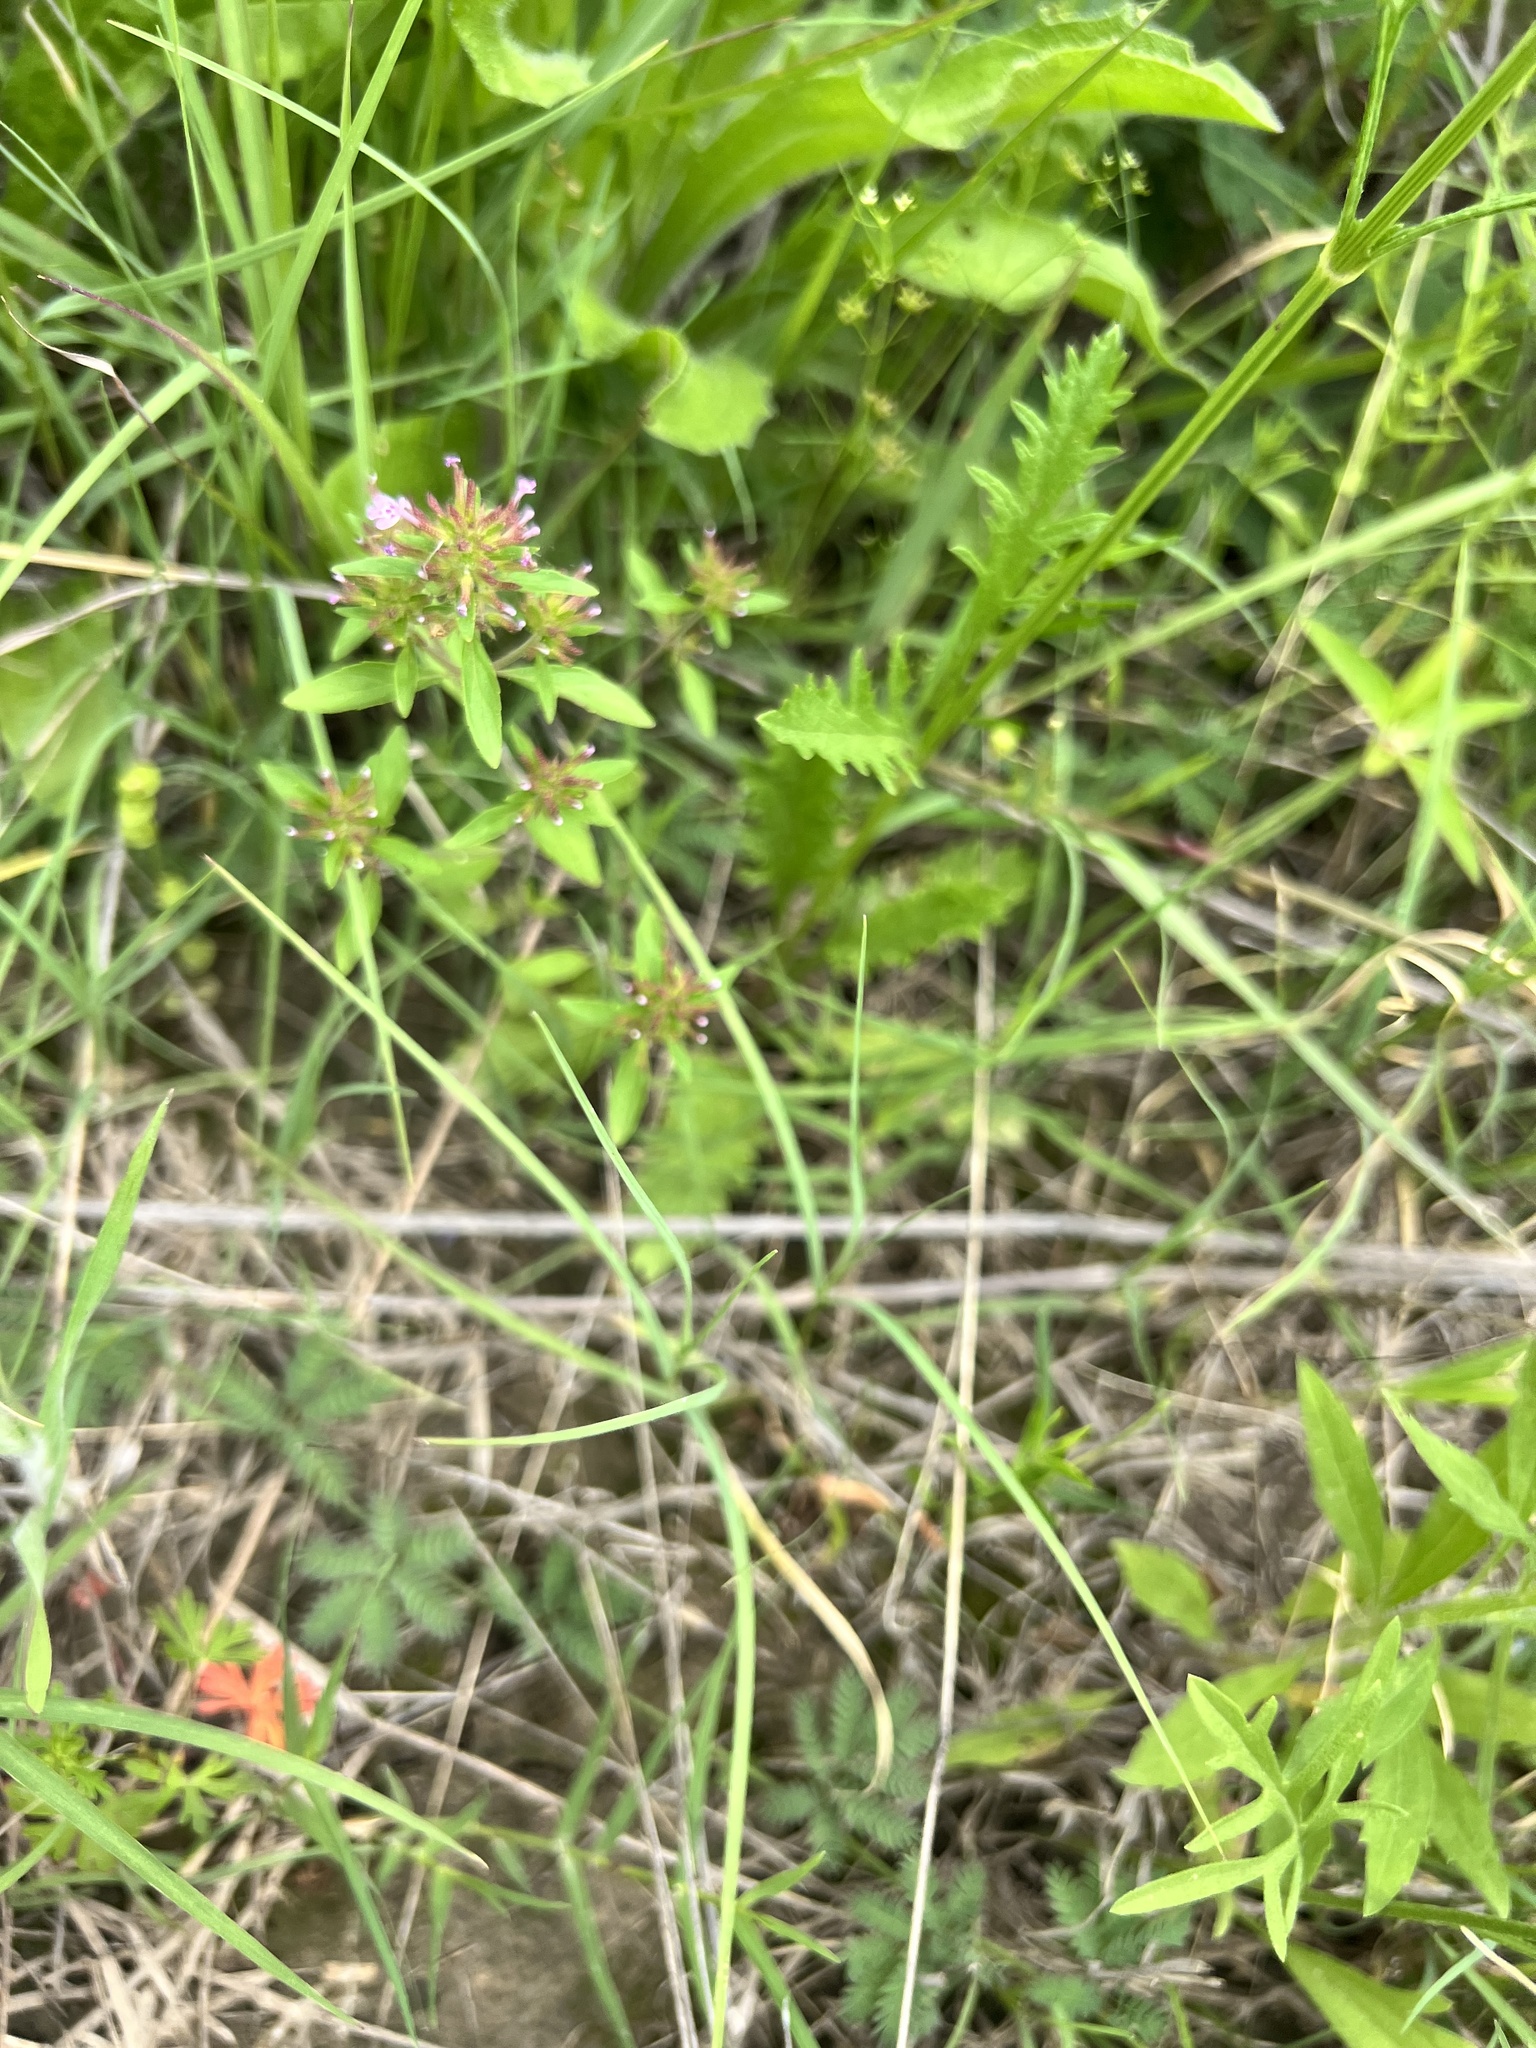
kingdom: Plantae
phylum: Tracheophyta
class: Magnoliopsida
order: Lamiales
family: Lamiaceae
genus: Hedeoma
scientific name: Hedeoma acinoides
